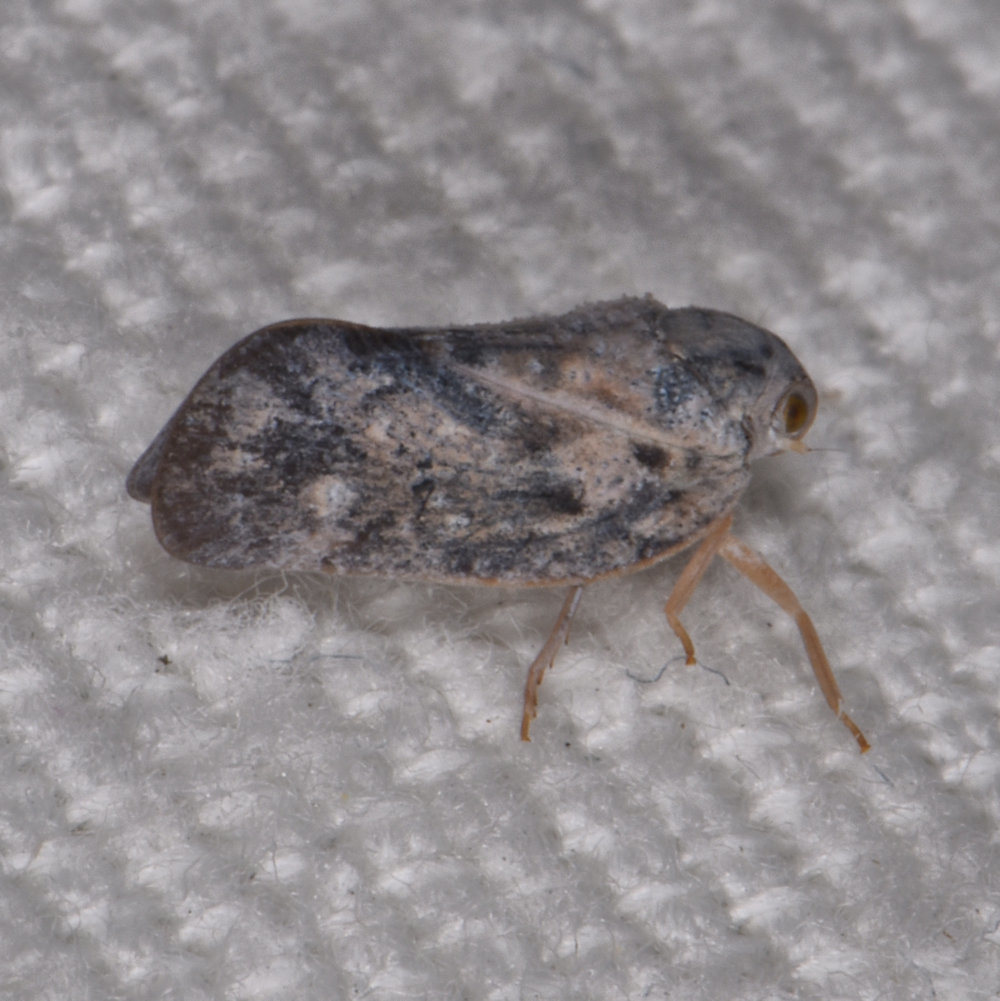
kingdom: Animalia
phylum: Arthropoda
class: Insecta
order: Hemiptera
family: Flatidae
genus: Metcalfa
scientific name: Metcalfa pruinosa
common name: Citrus flatid planthopper
